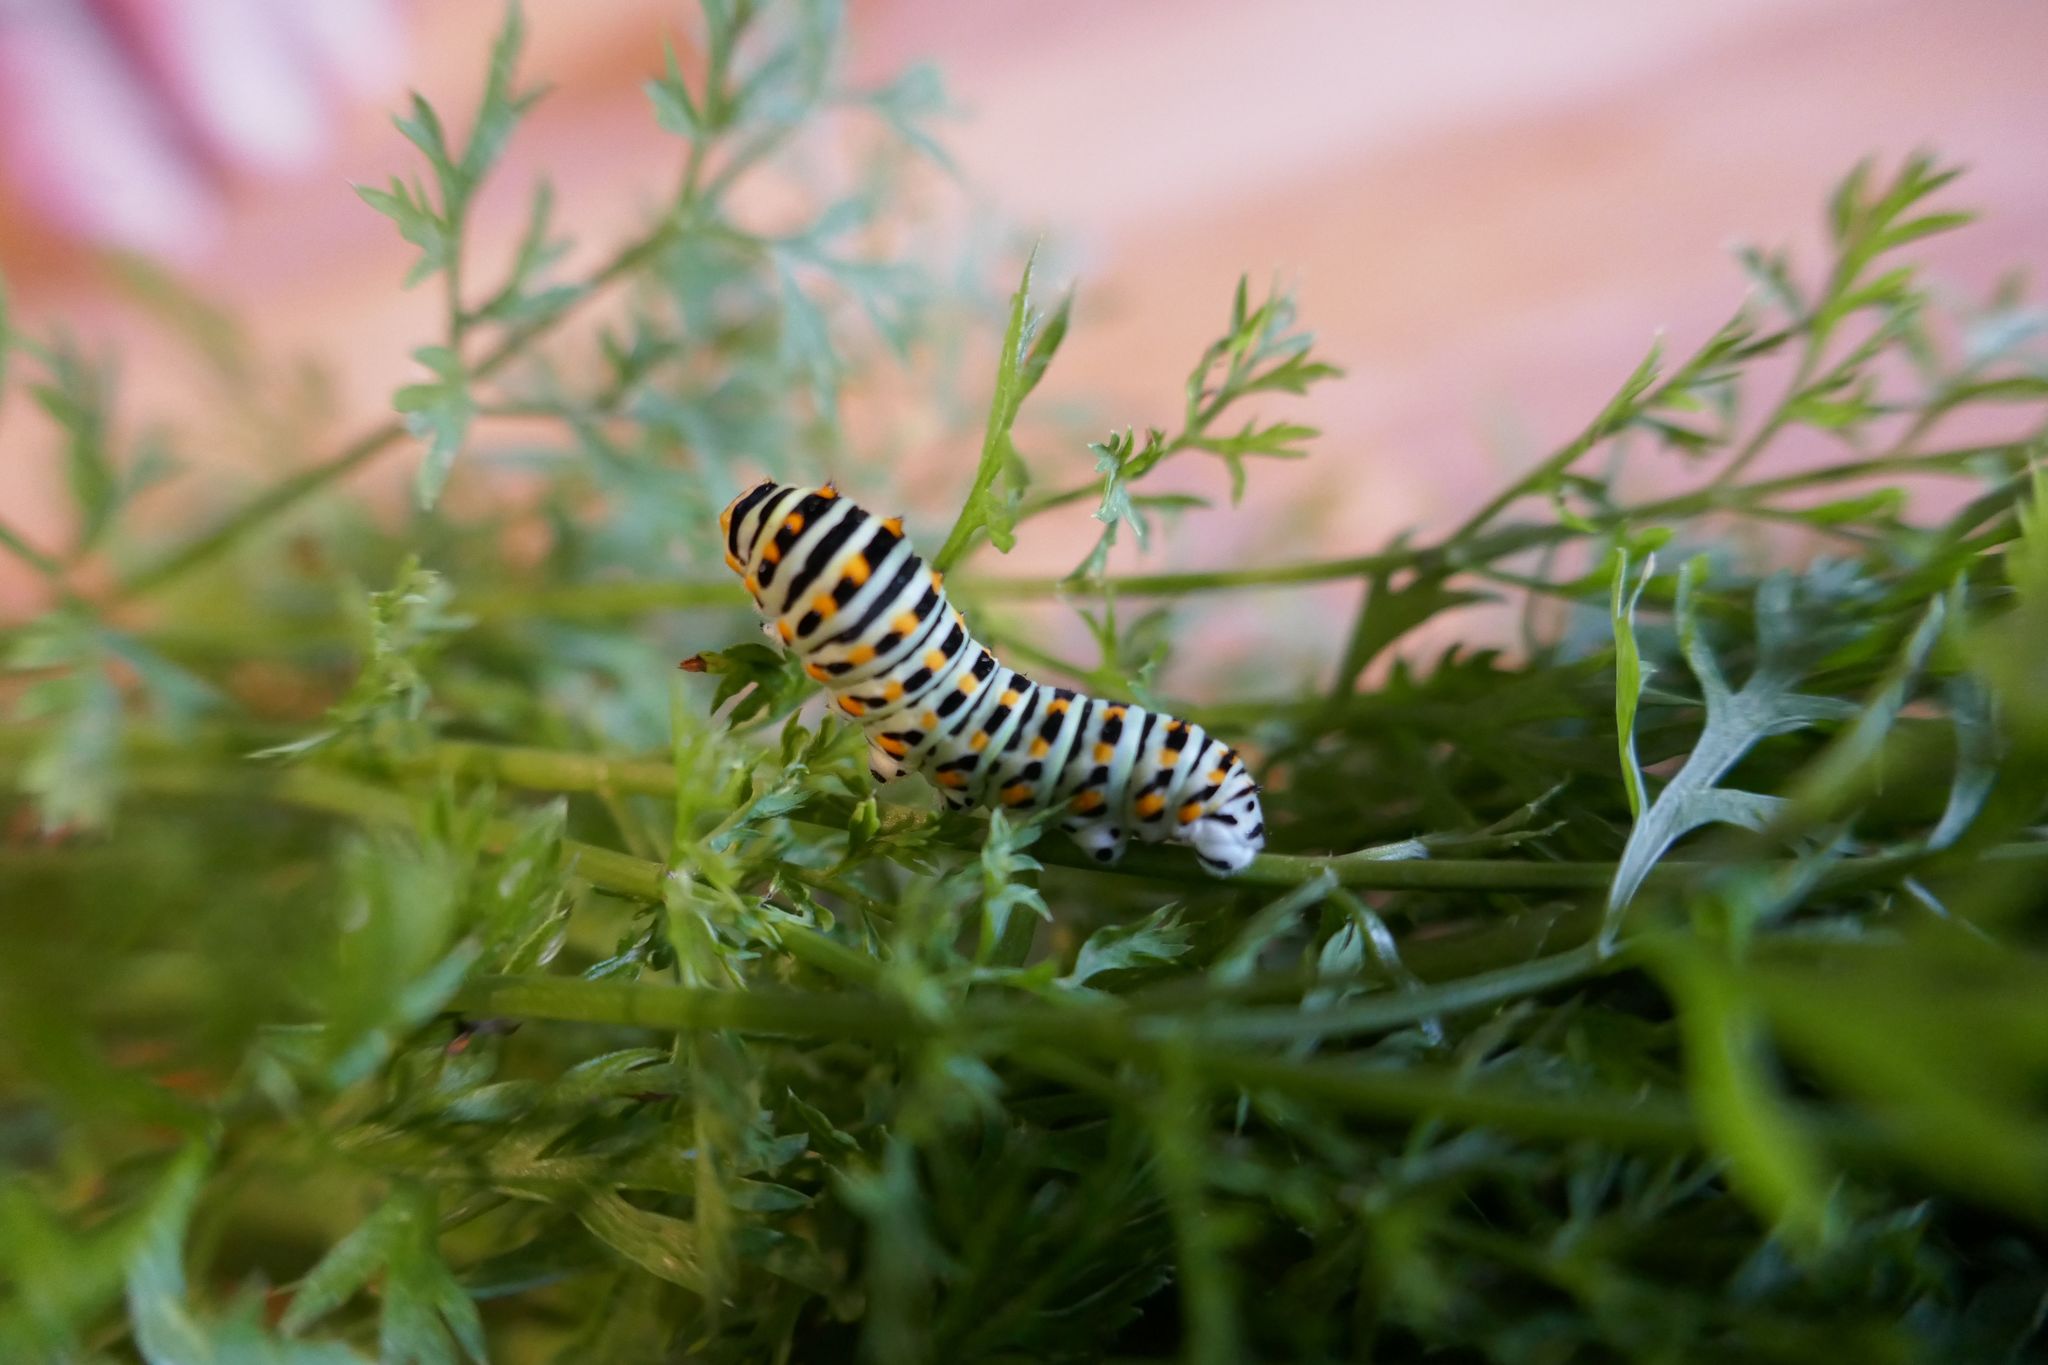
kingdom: Animalia
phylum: Arthropoda
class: Insecta
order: Lepidoptera
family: Papilionidae
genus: Papilio
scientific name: Papilio machaon
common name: Swallowtail
